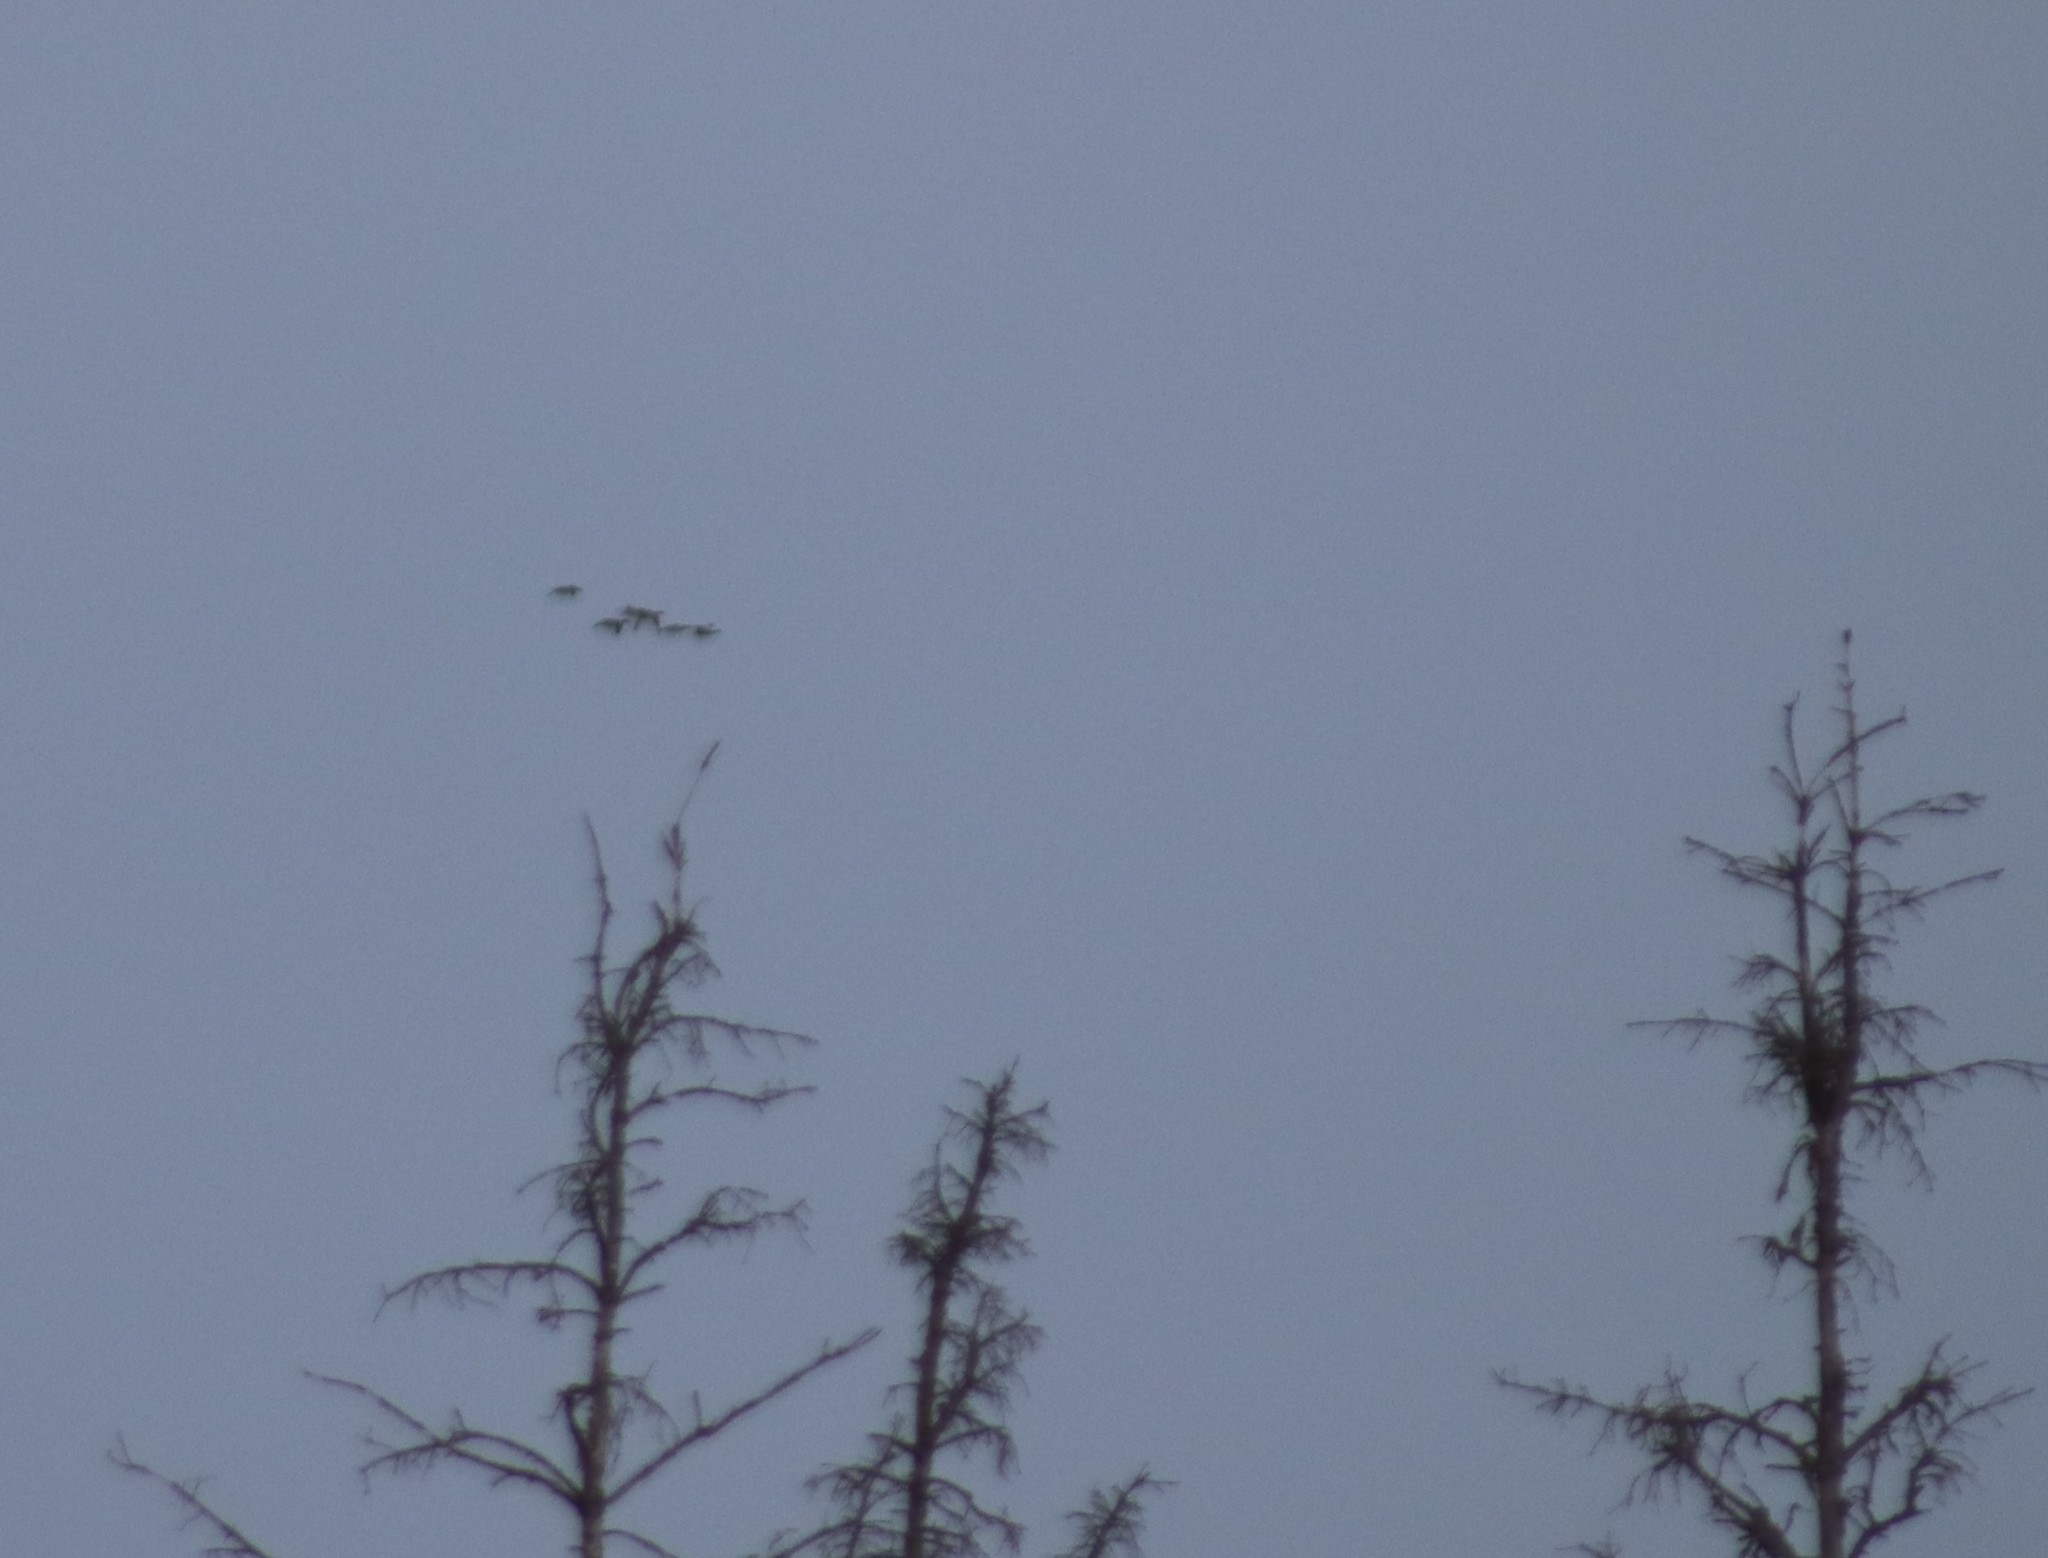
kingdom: Animalia
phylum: Chordata
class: Aves
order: Gruiformes
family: Gruidae
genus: Grus
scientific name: Grus canadensis
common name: Sandhill crane
